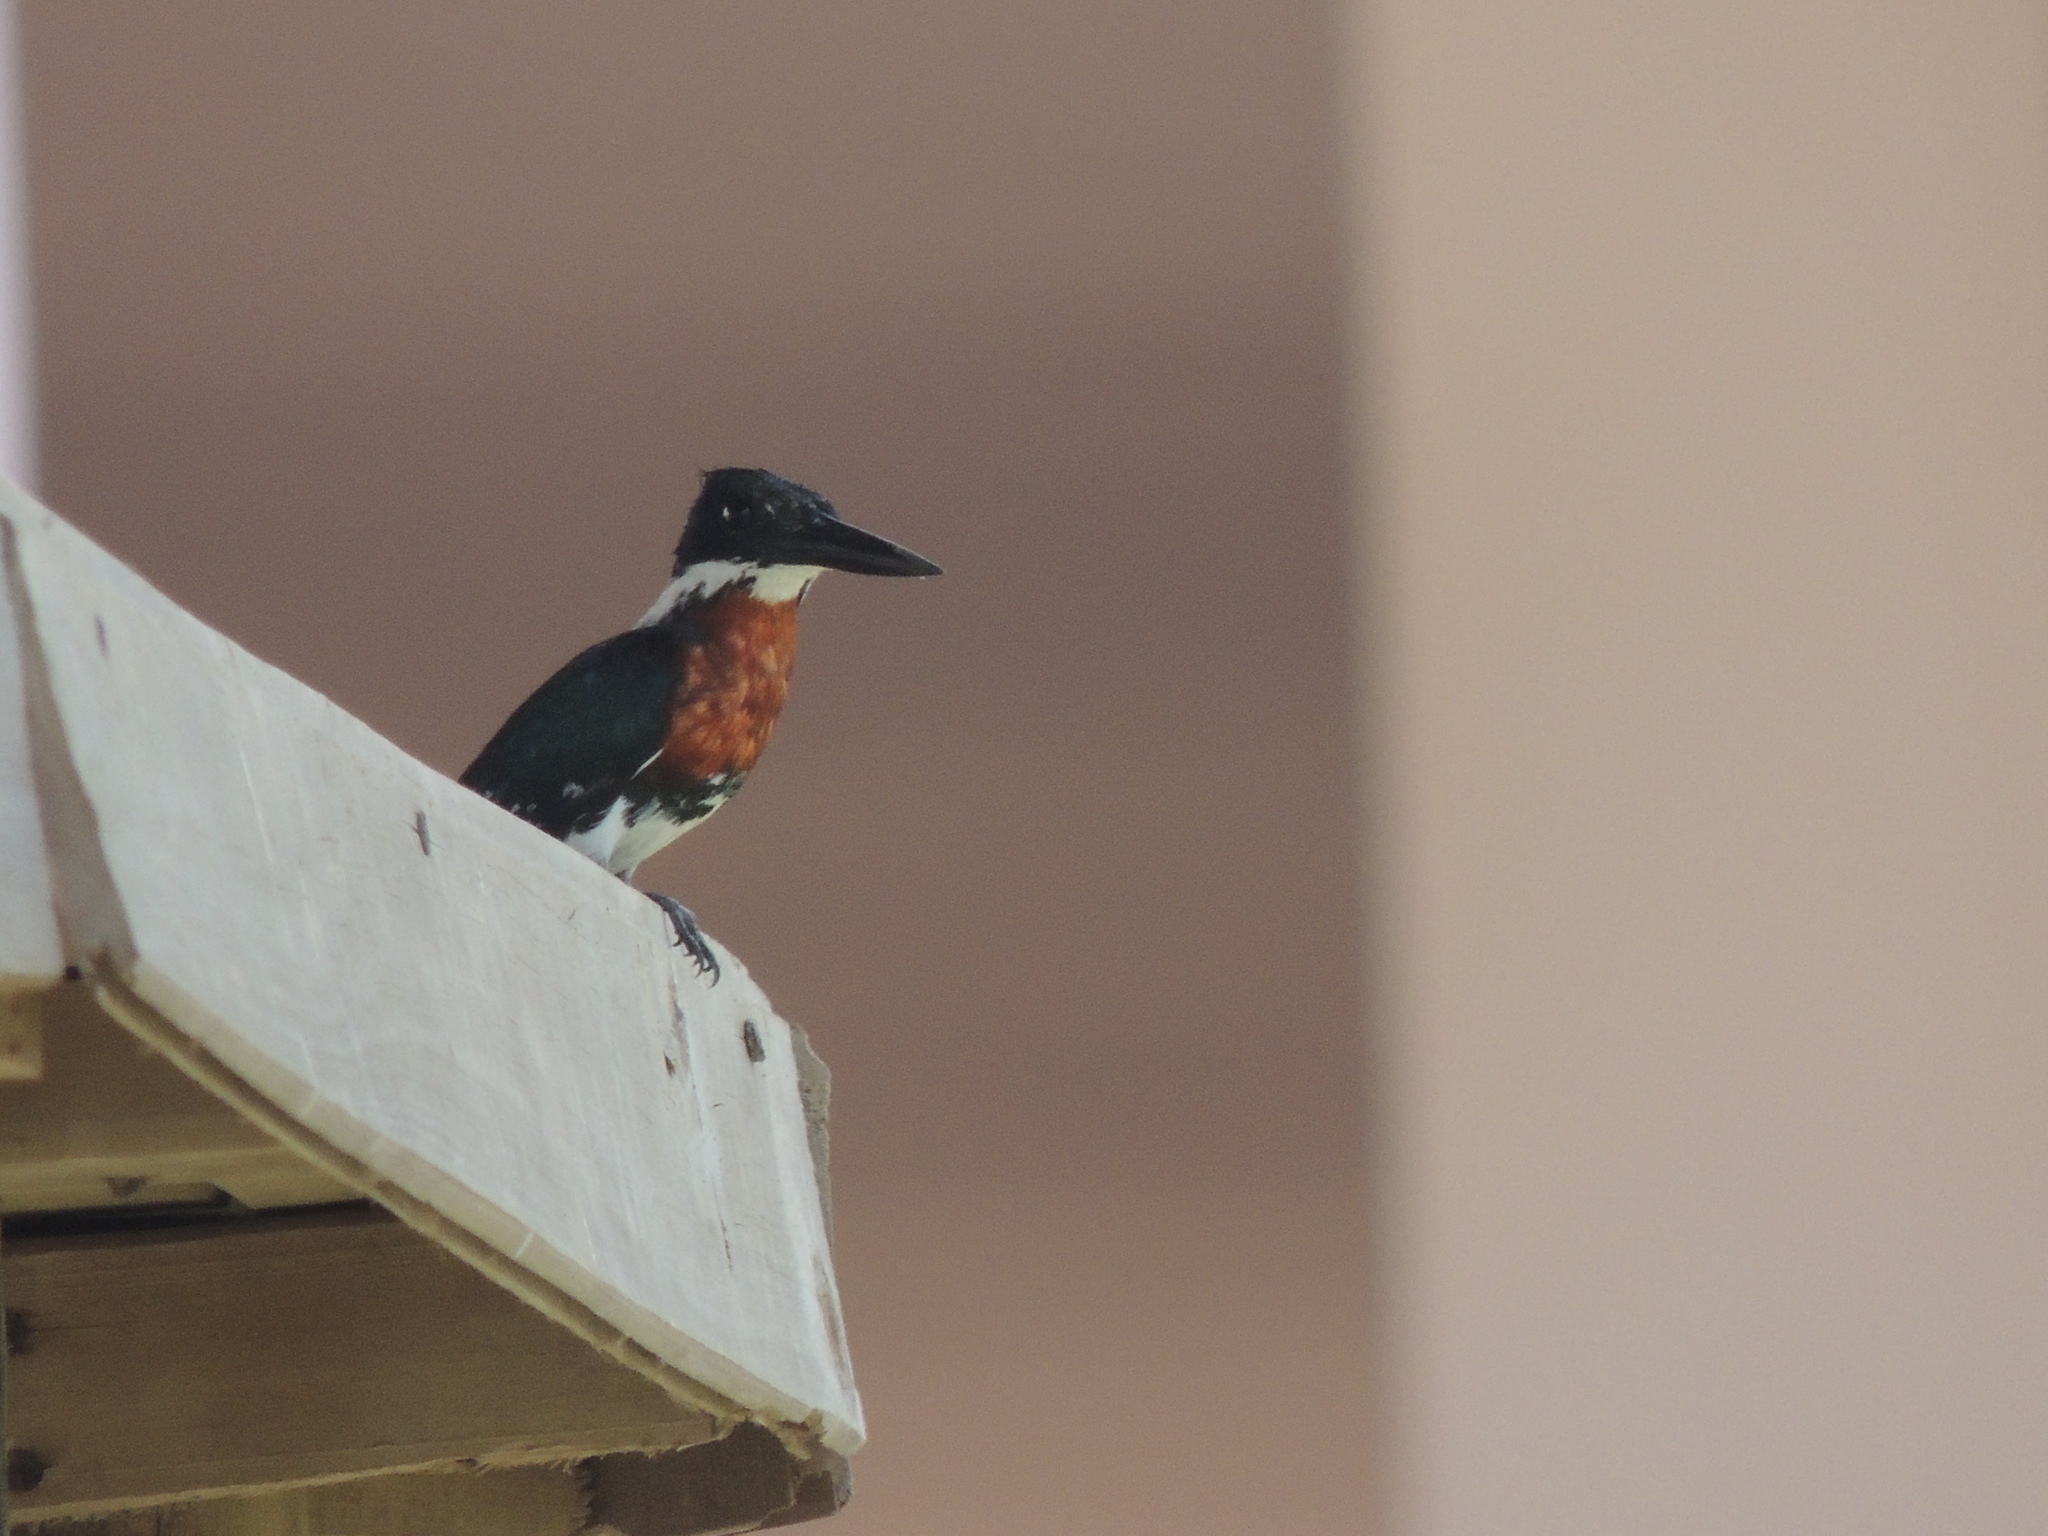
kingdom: Animalia
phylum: Chordata
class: Aves
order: Coraciiformes
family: Alcedinidae
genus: Chloroceryle
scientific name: Chloroceryle americana
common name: Green kingfisher
